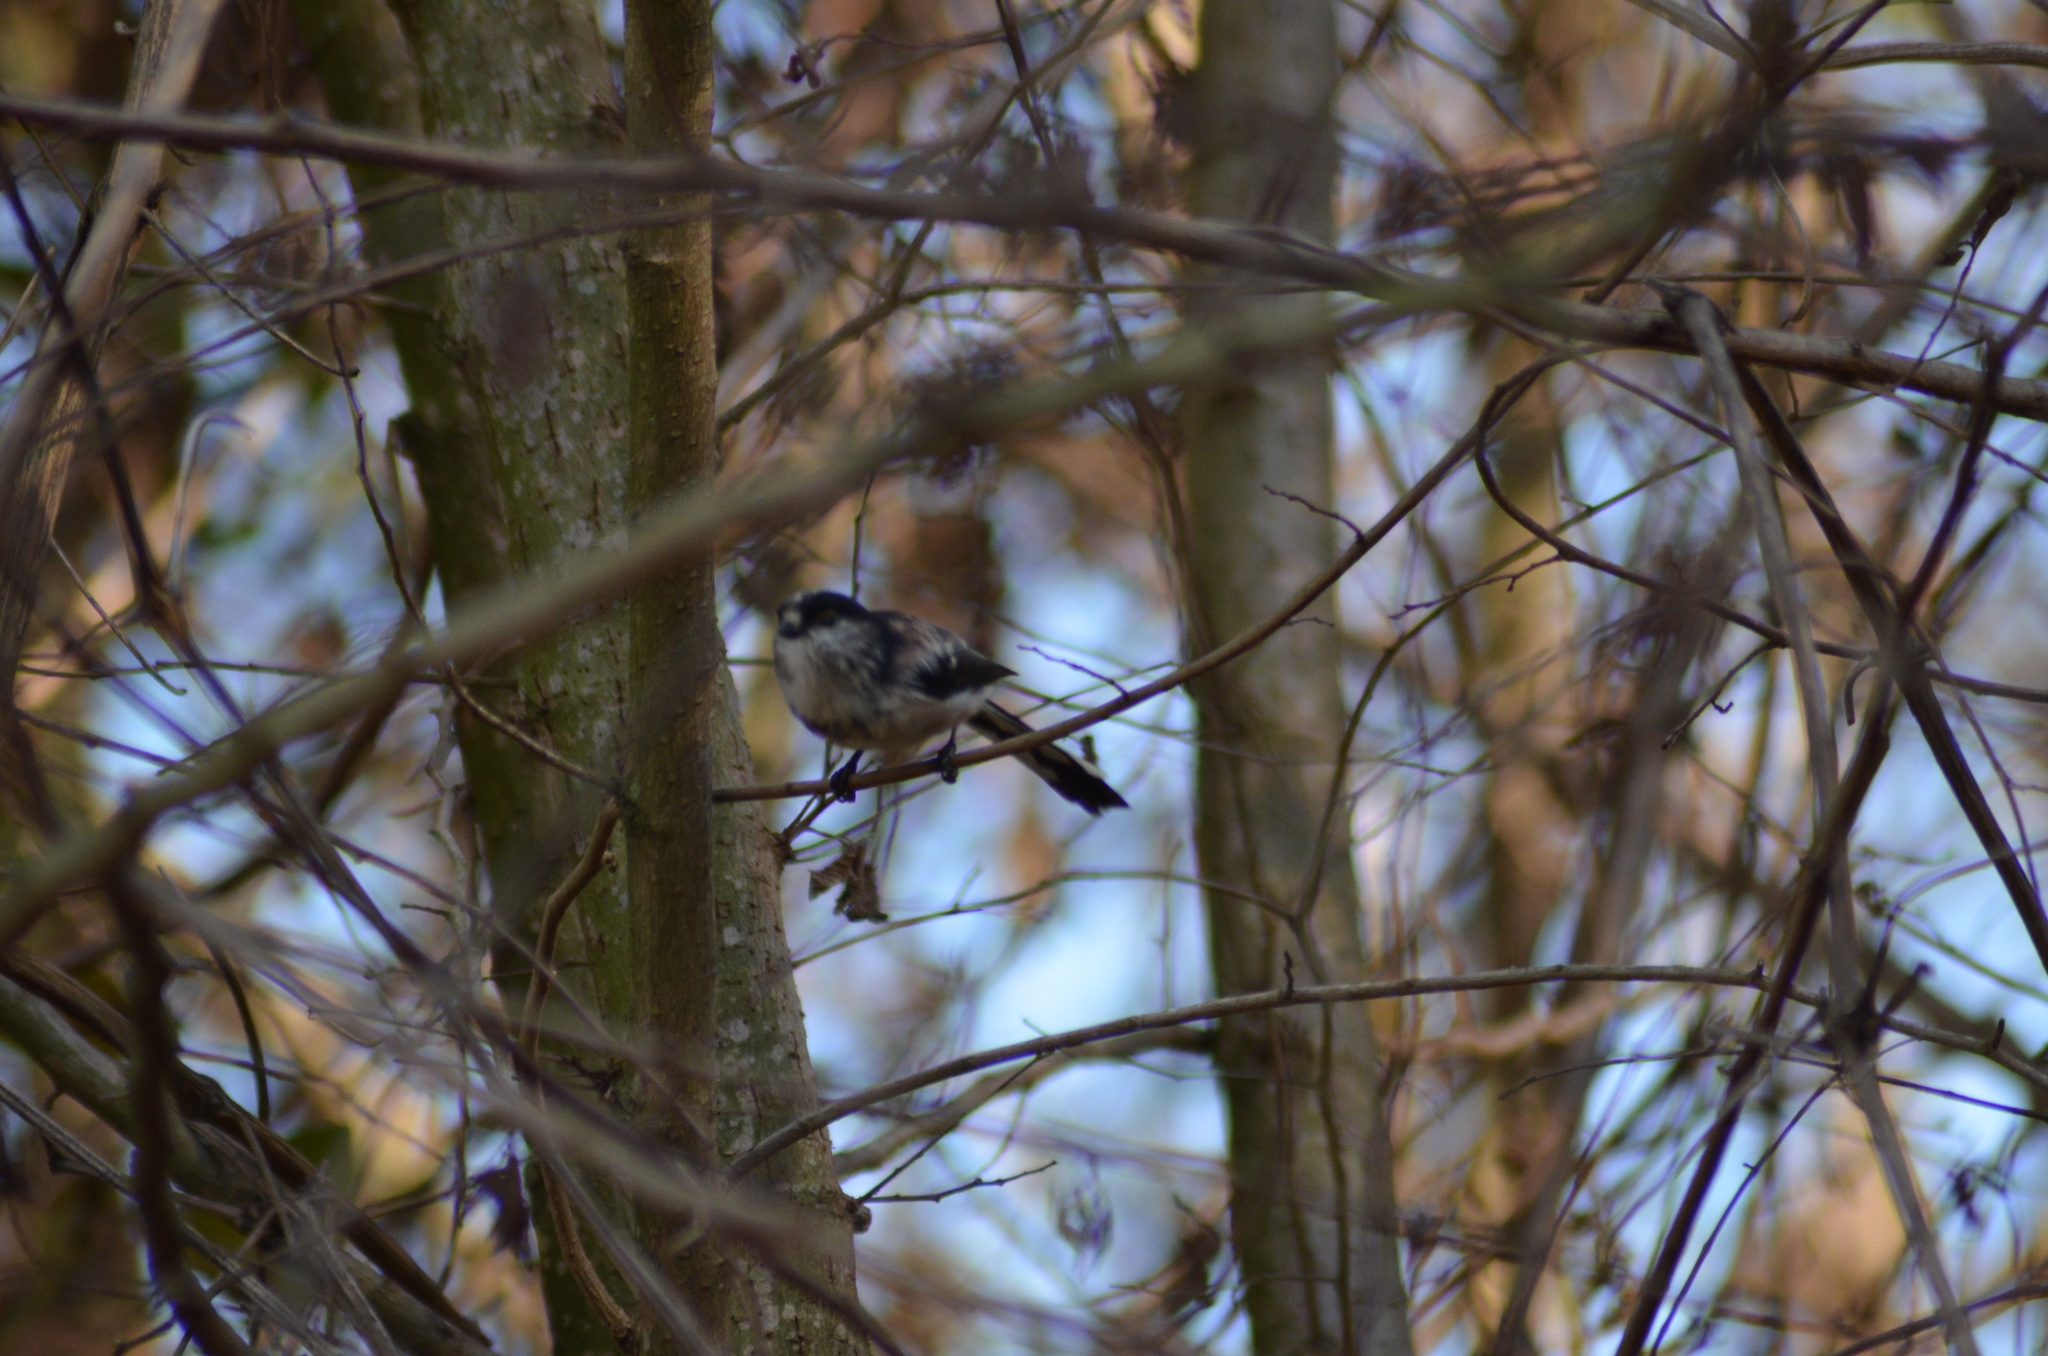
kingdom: Animalia
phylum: Chordata
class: Aves
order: Passeriformes
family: Aegithalidae
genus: Aegithalos
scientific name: Aegithalos caudatus
